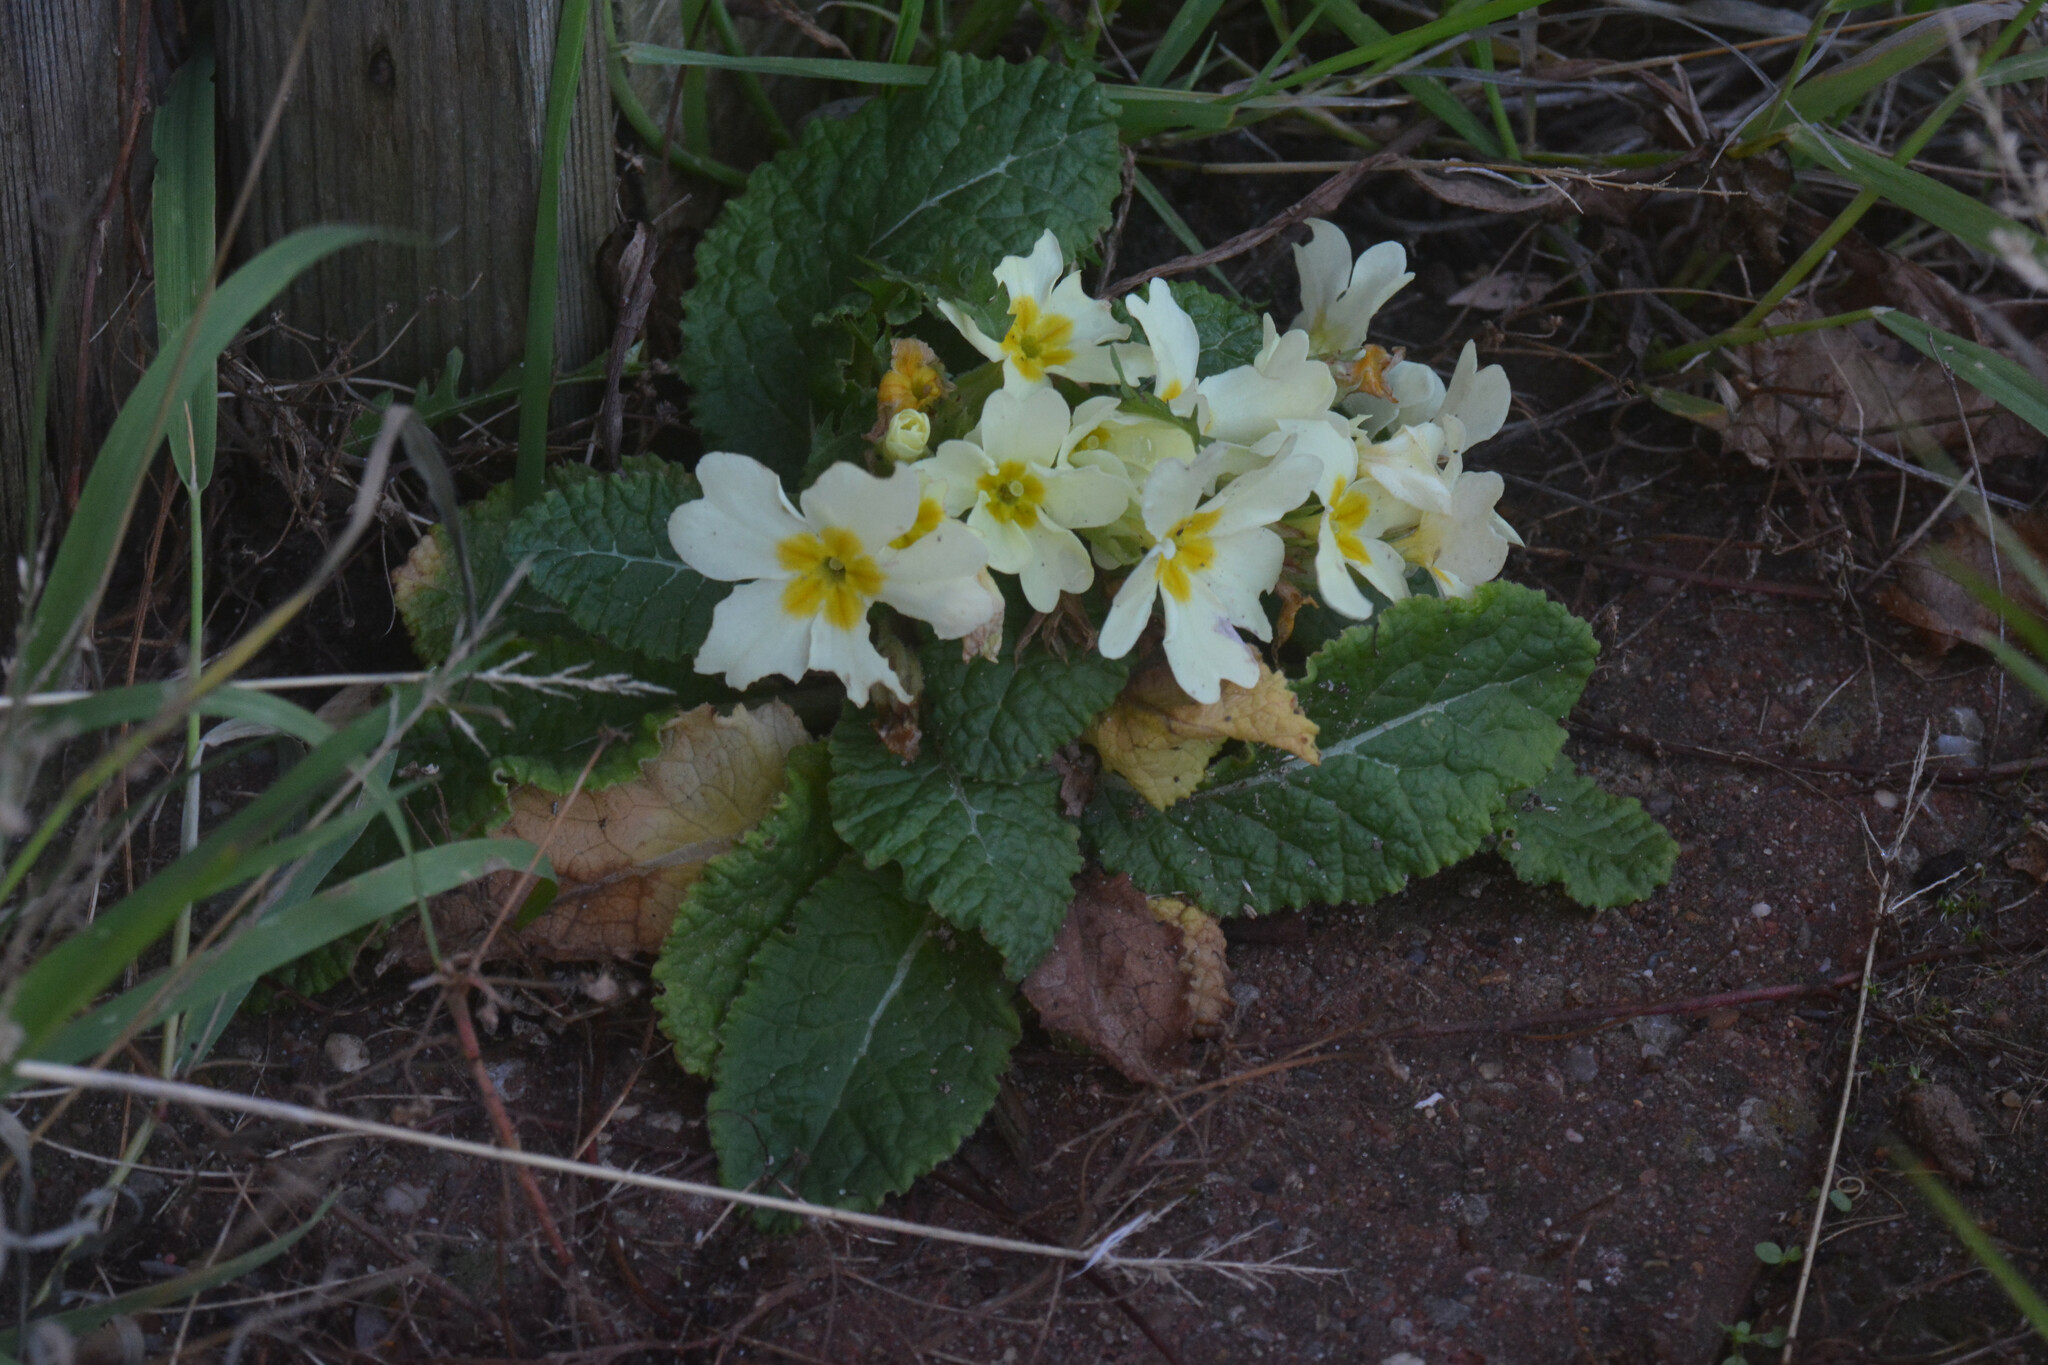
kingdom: Plantae
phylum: Tracheophyta
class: Magnoliopsida
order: Ericales
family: Primulaceae
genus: Primula
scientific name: Primula vulgaris
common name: Primrose
